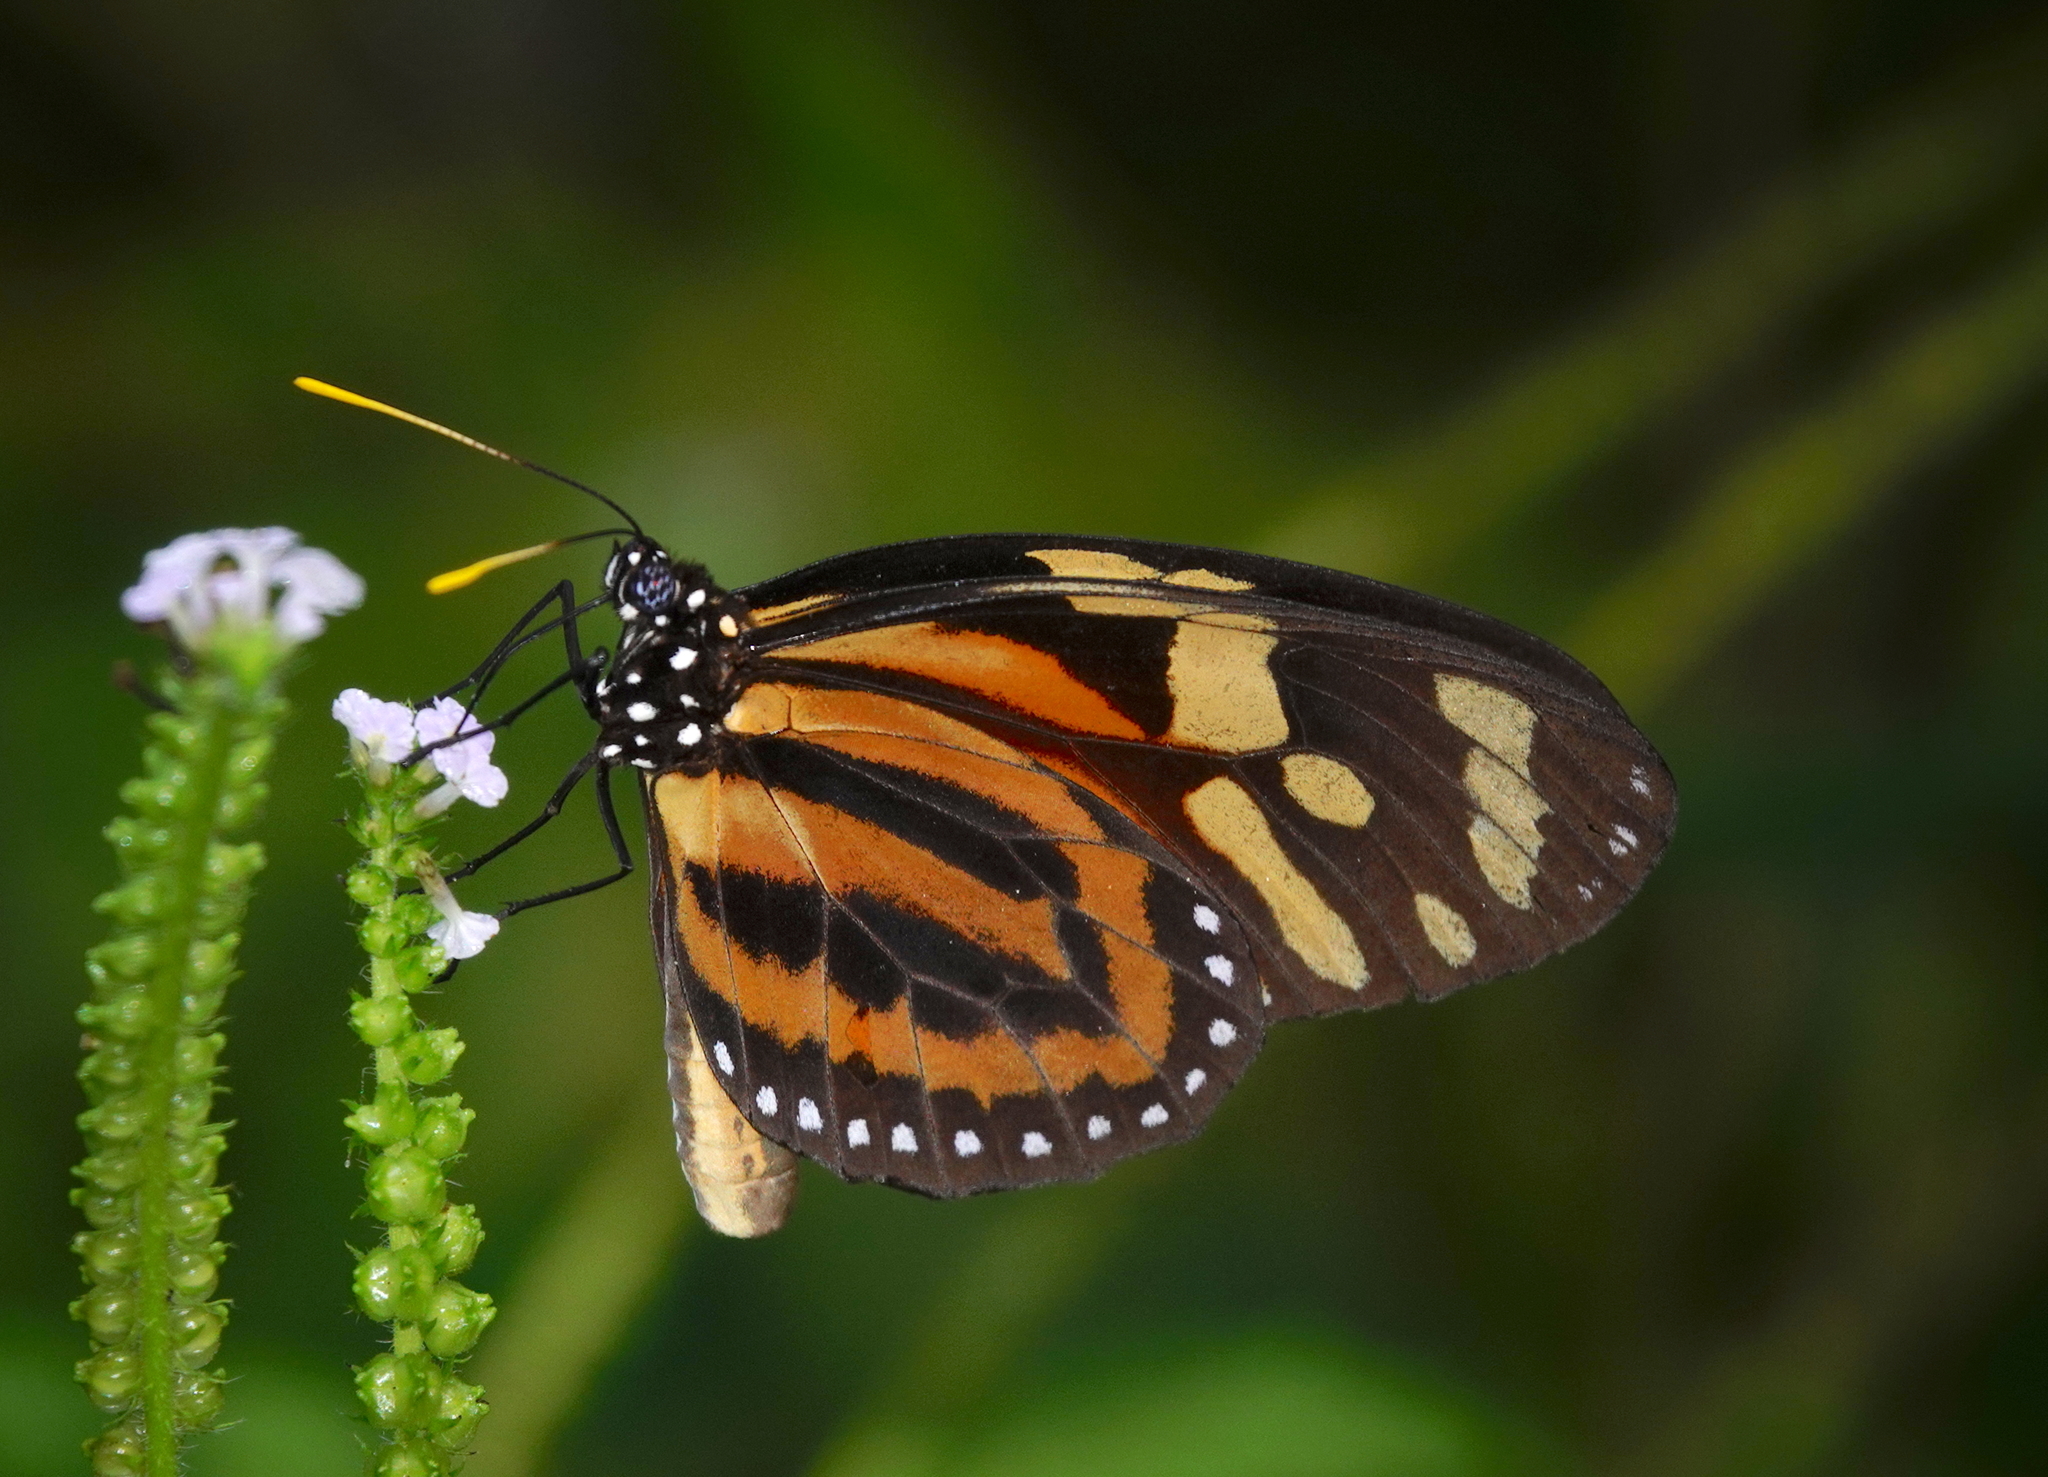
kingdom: Animalia
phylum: Arthropoda
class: Insecta
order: Lepidoptera
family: Nymphalidae
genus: Lycorea
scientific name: Lycorea cleobaea
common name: Tiger mimic-queen
